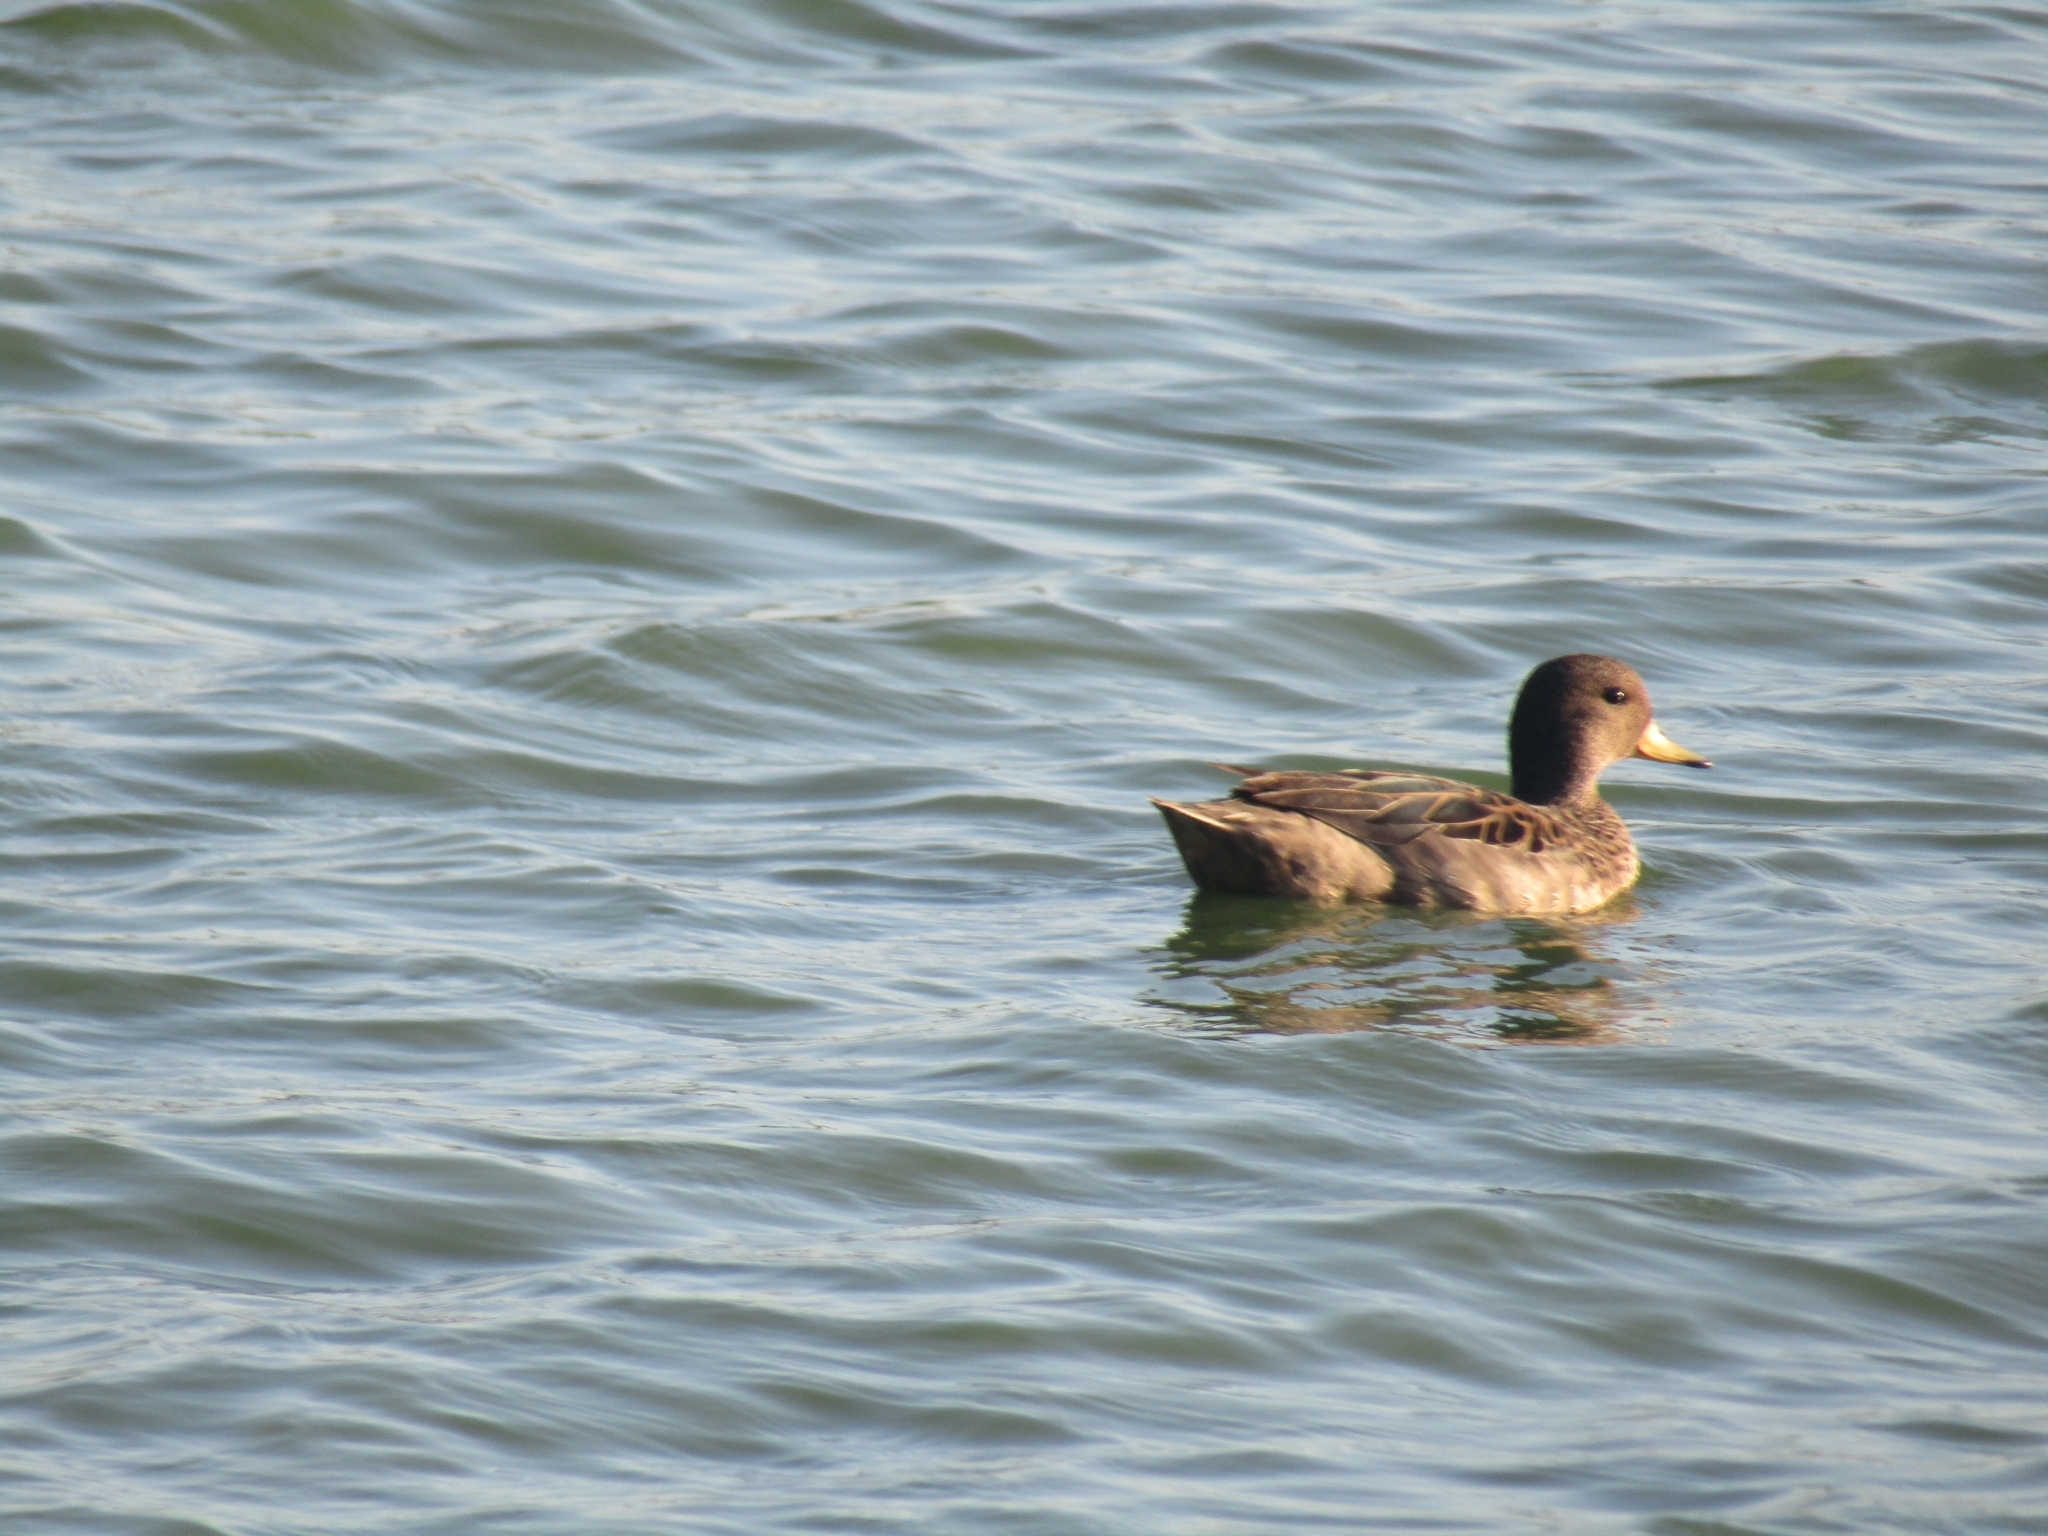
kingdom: Animalia
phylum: Chordata
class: Aves
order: Anseriformes
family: Anatidae
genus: Anas
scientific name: Anas flavirostris
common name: Yellow-billed teal
